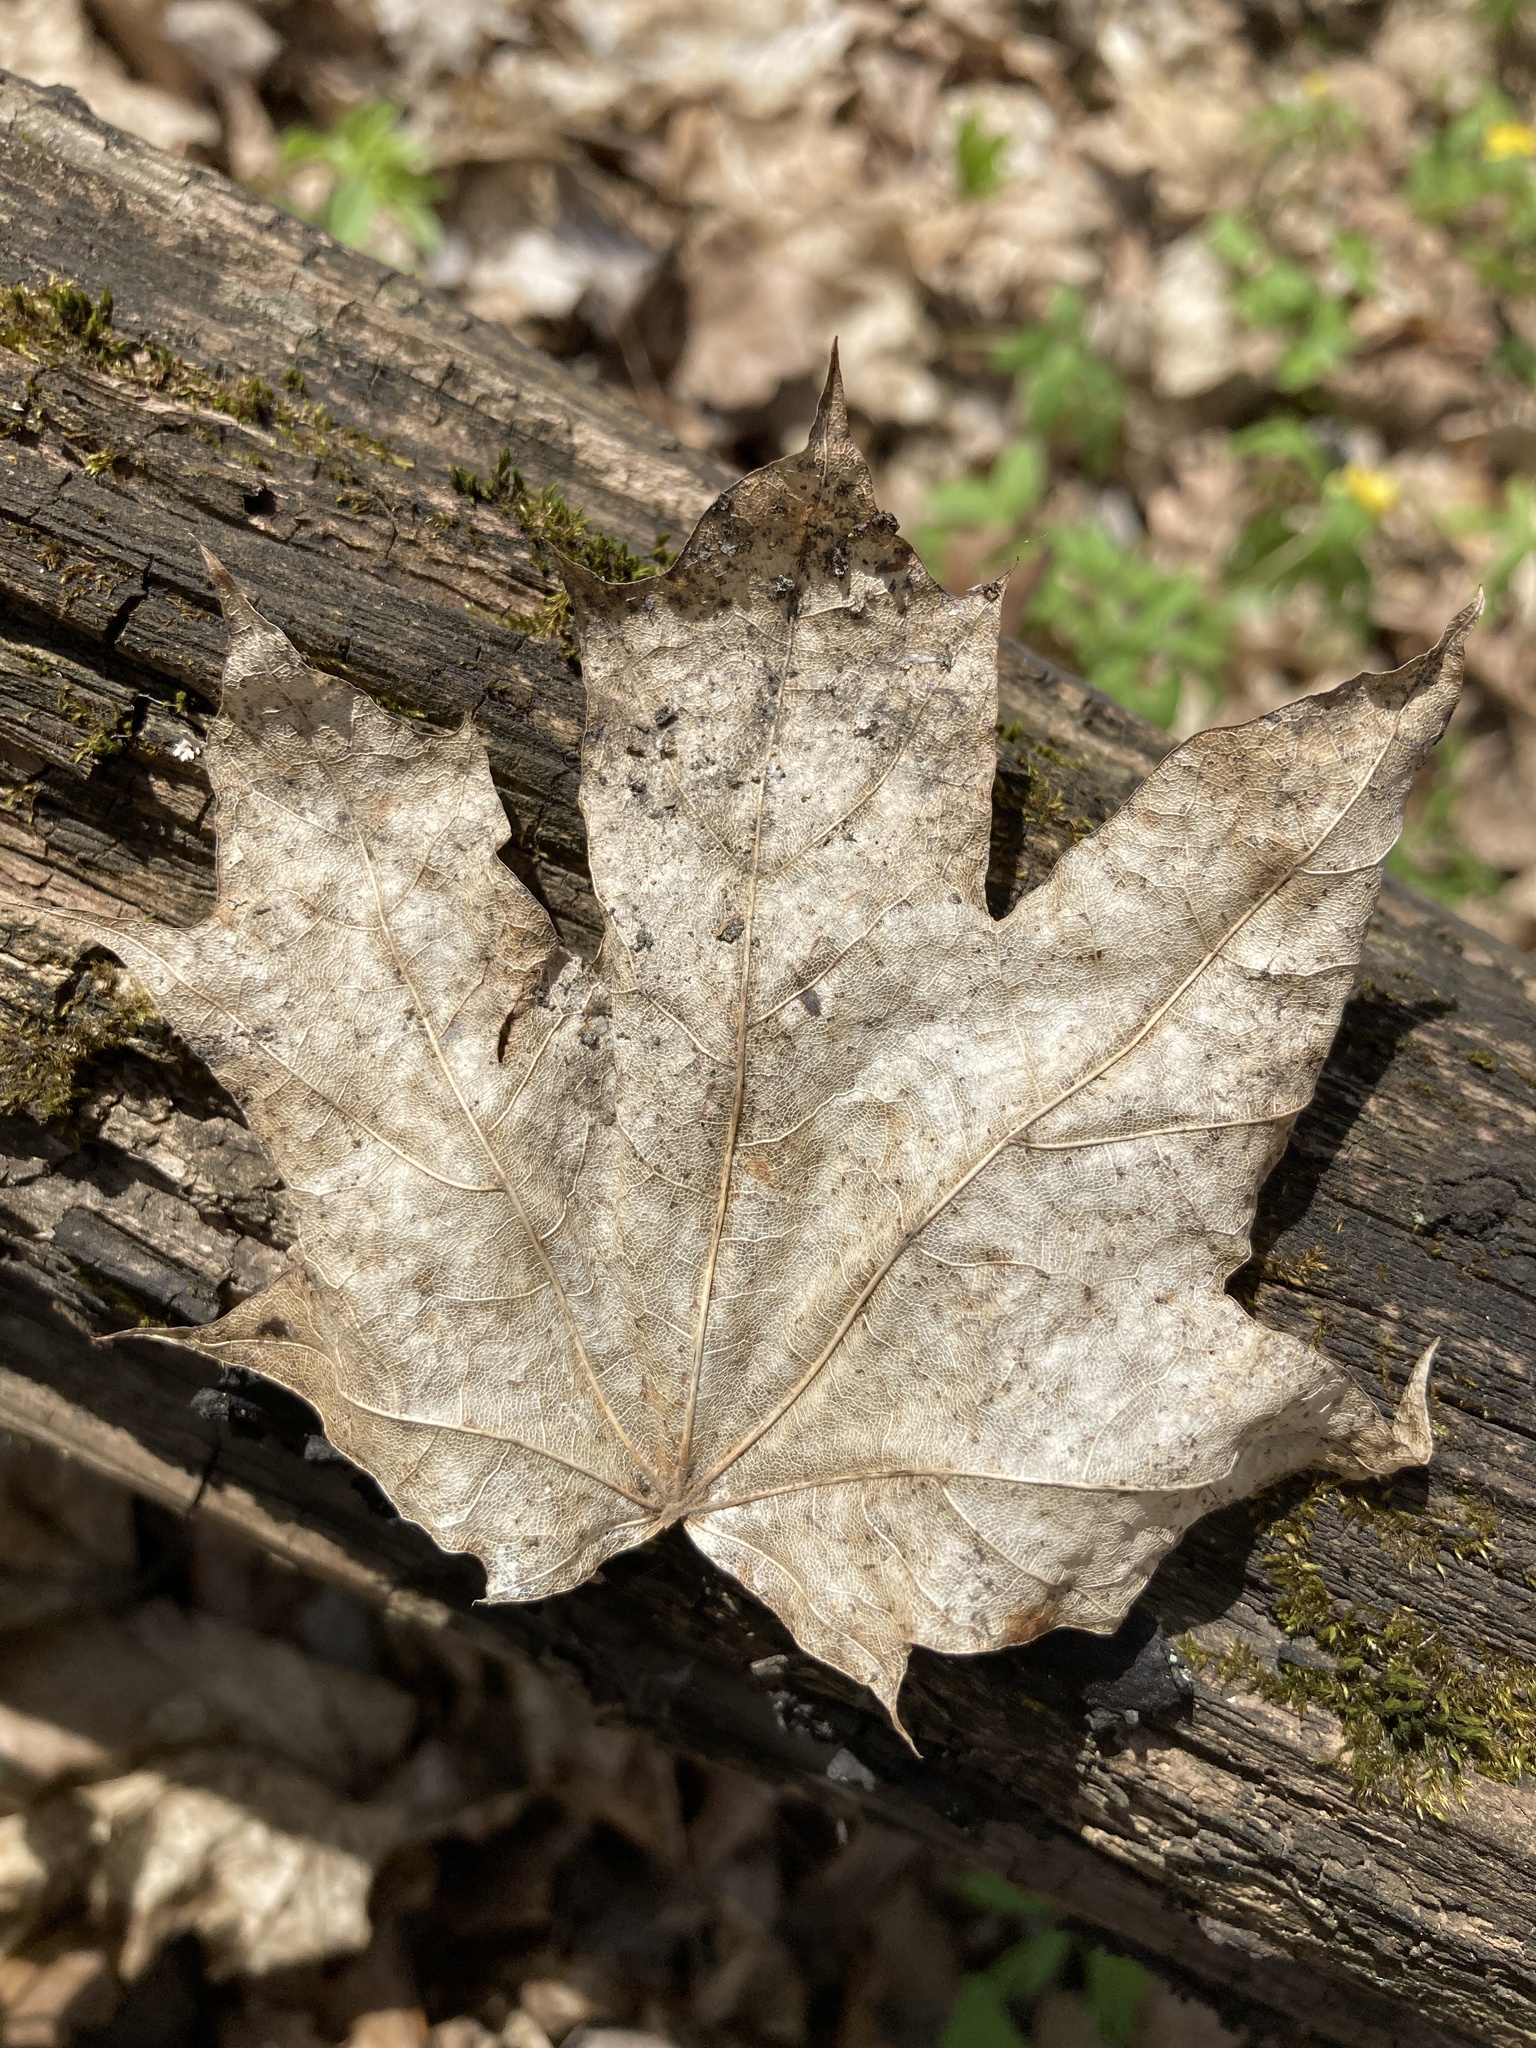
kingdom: Plantae
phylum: Tracheophyta
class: Magnoliopsida
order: Sapindales
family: Sapindaceae
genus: Acer
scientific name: Acer platanoides
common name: Norway maple
